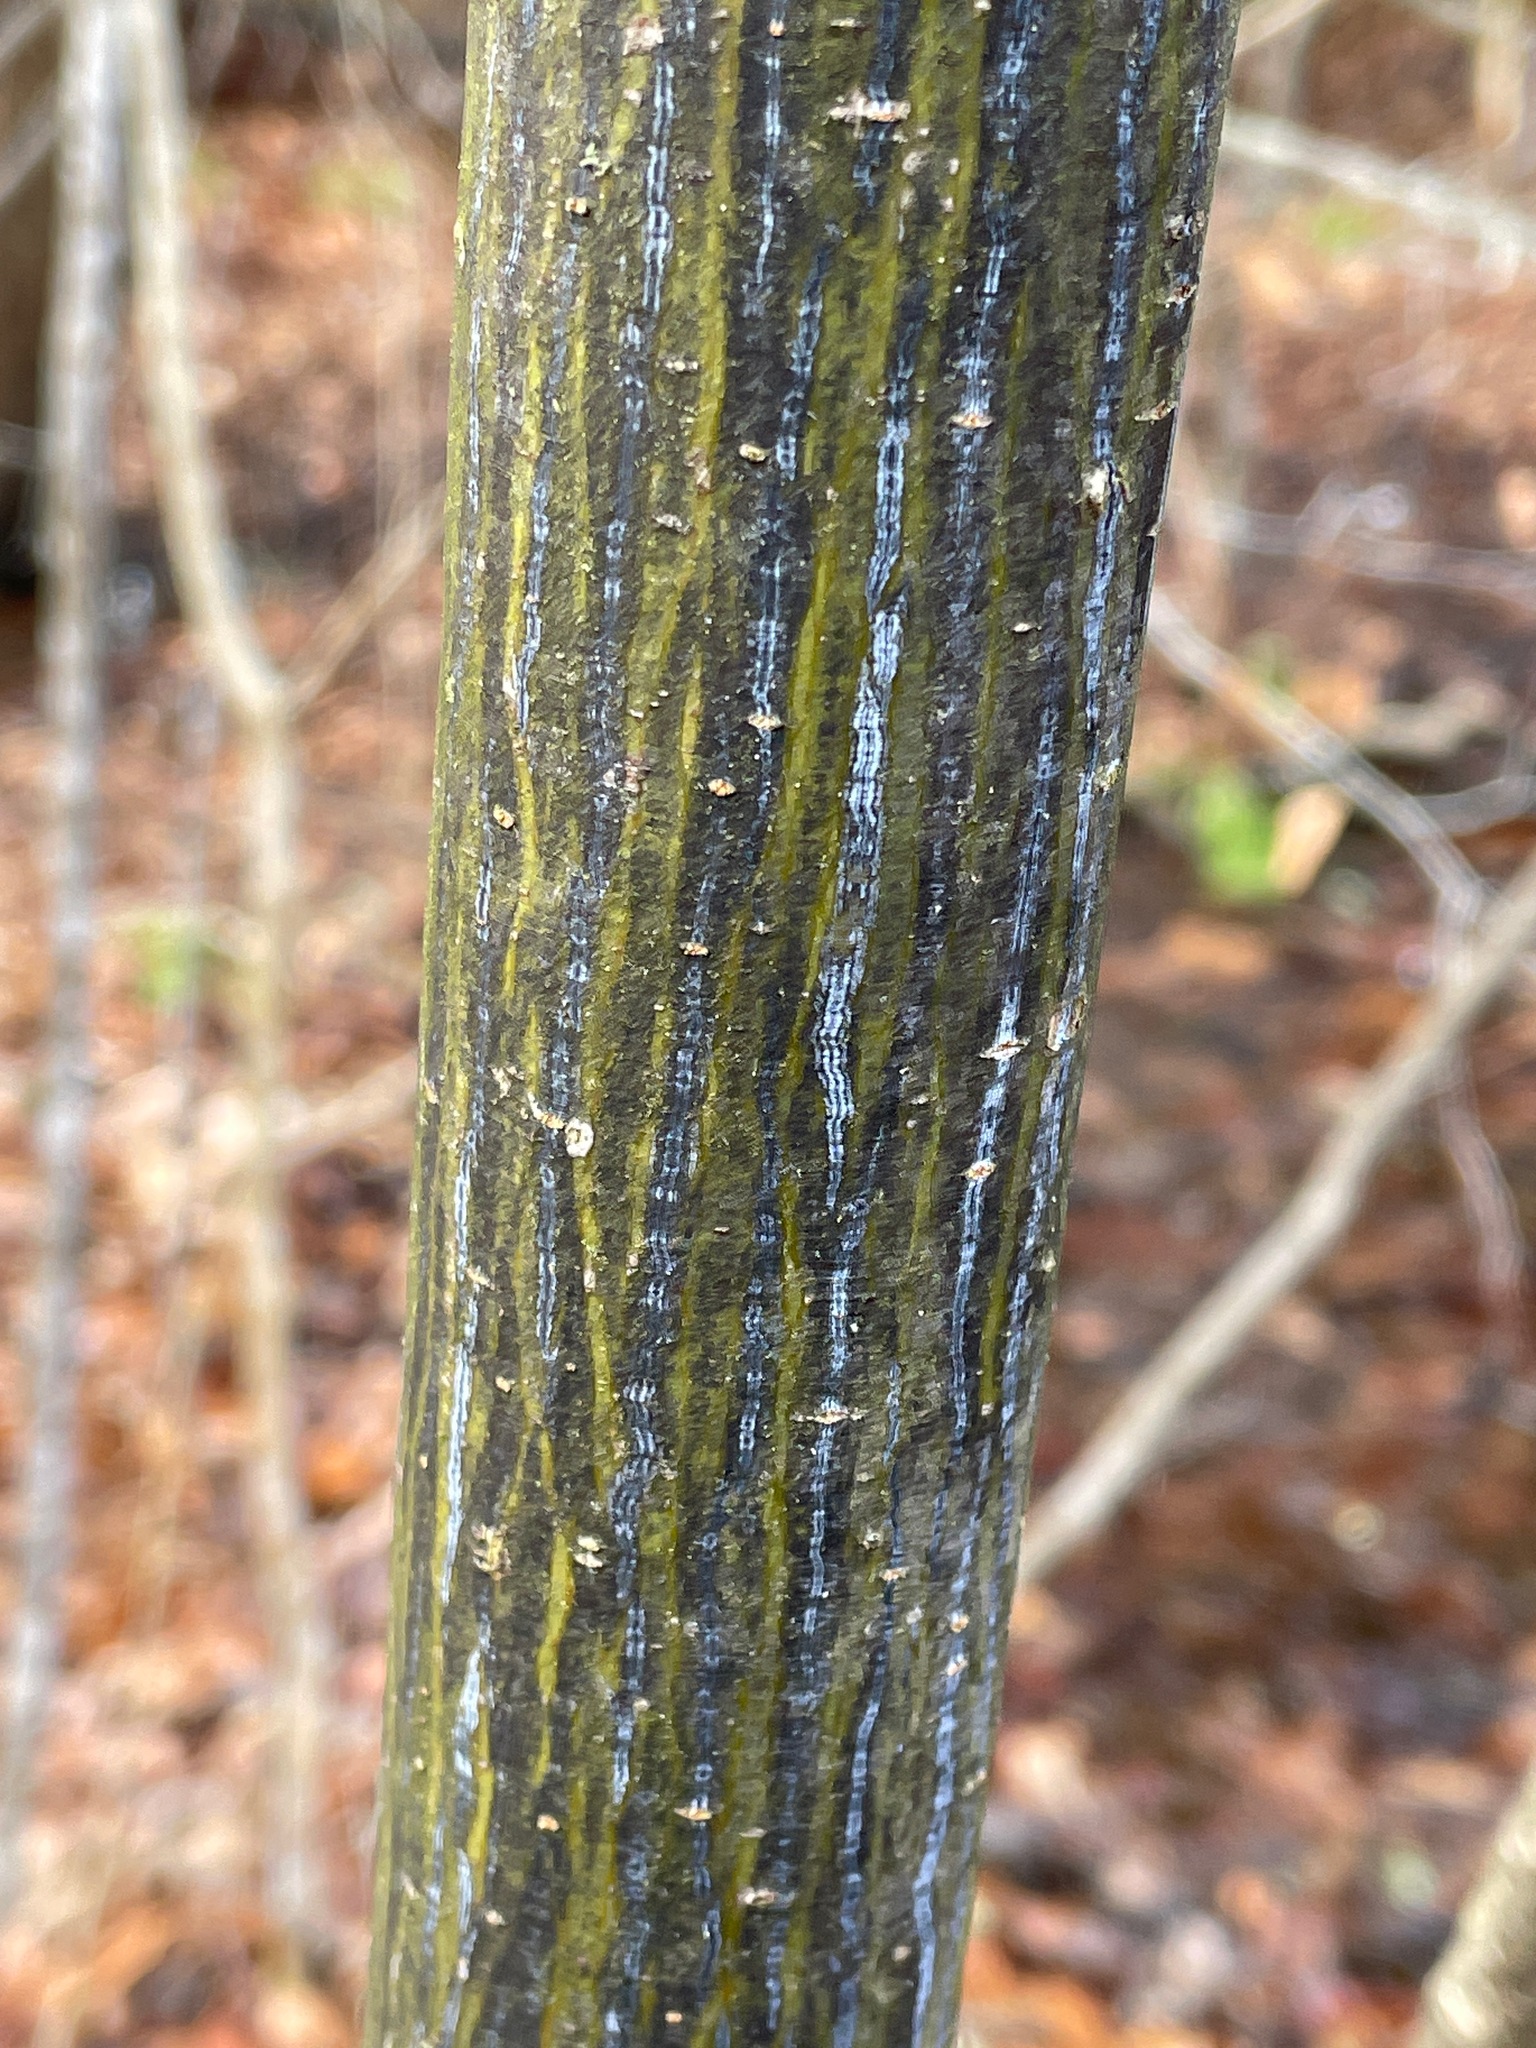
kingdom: Plantae
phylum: Tracheophyta
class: Magnoliopsida
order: Sapindales
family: Sapindaceae
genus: Acer
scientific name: Acer pensylvanicum
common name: Moosewood
